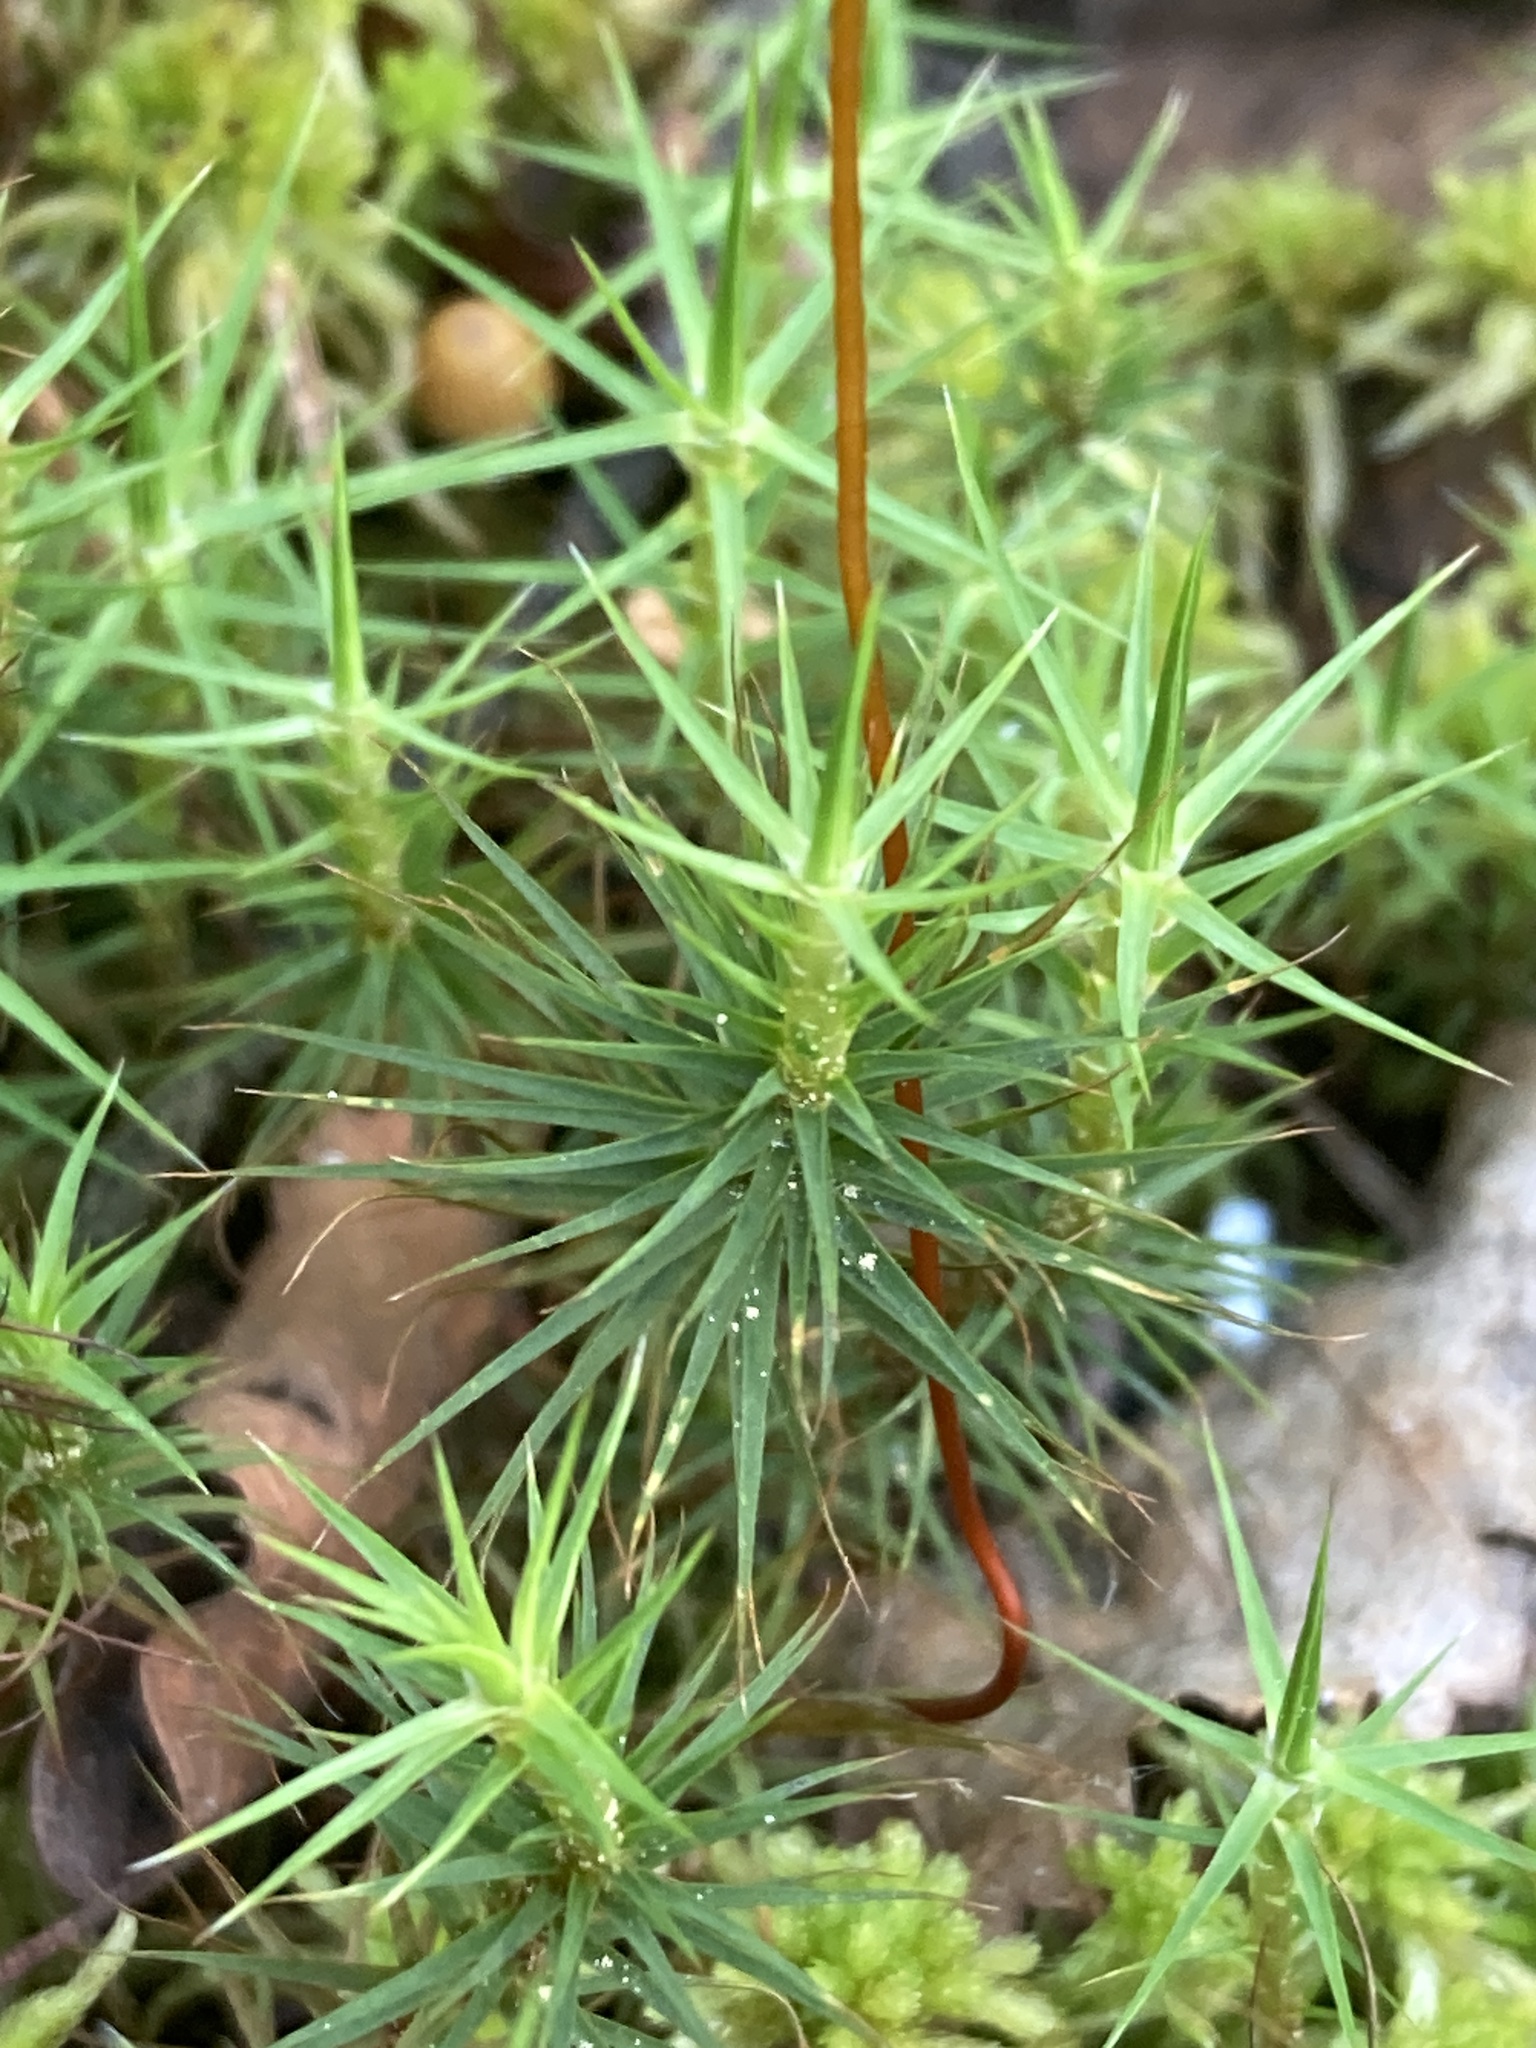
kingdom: Plantae
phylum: Bryophyta
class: Polytrichopsida
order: Polytrichales
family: Polytrichaceae
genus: Polytrichum
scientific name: Polytrichum commune
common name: Common haircap
